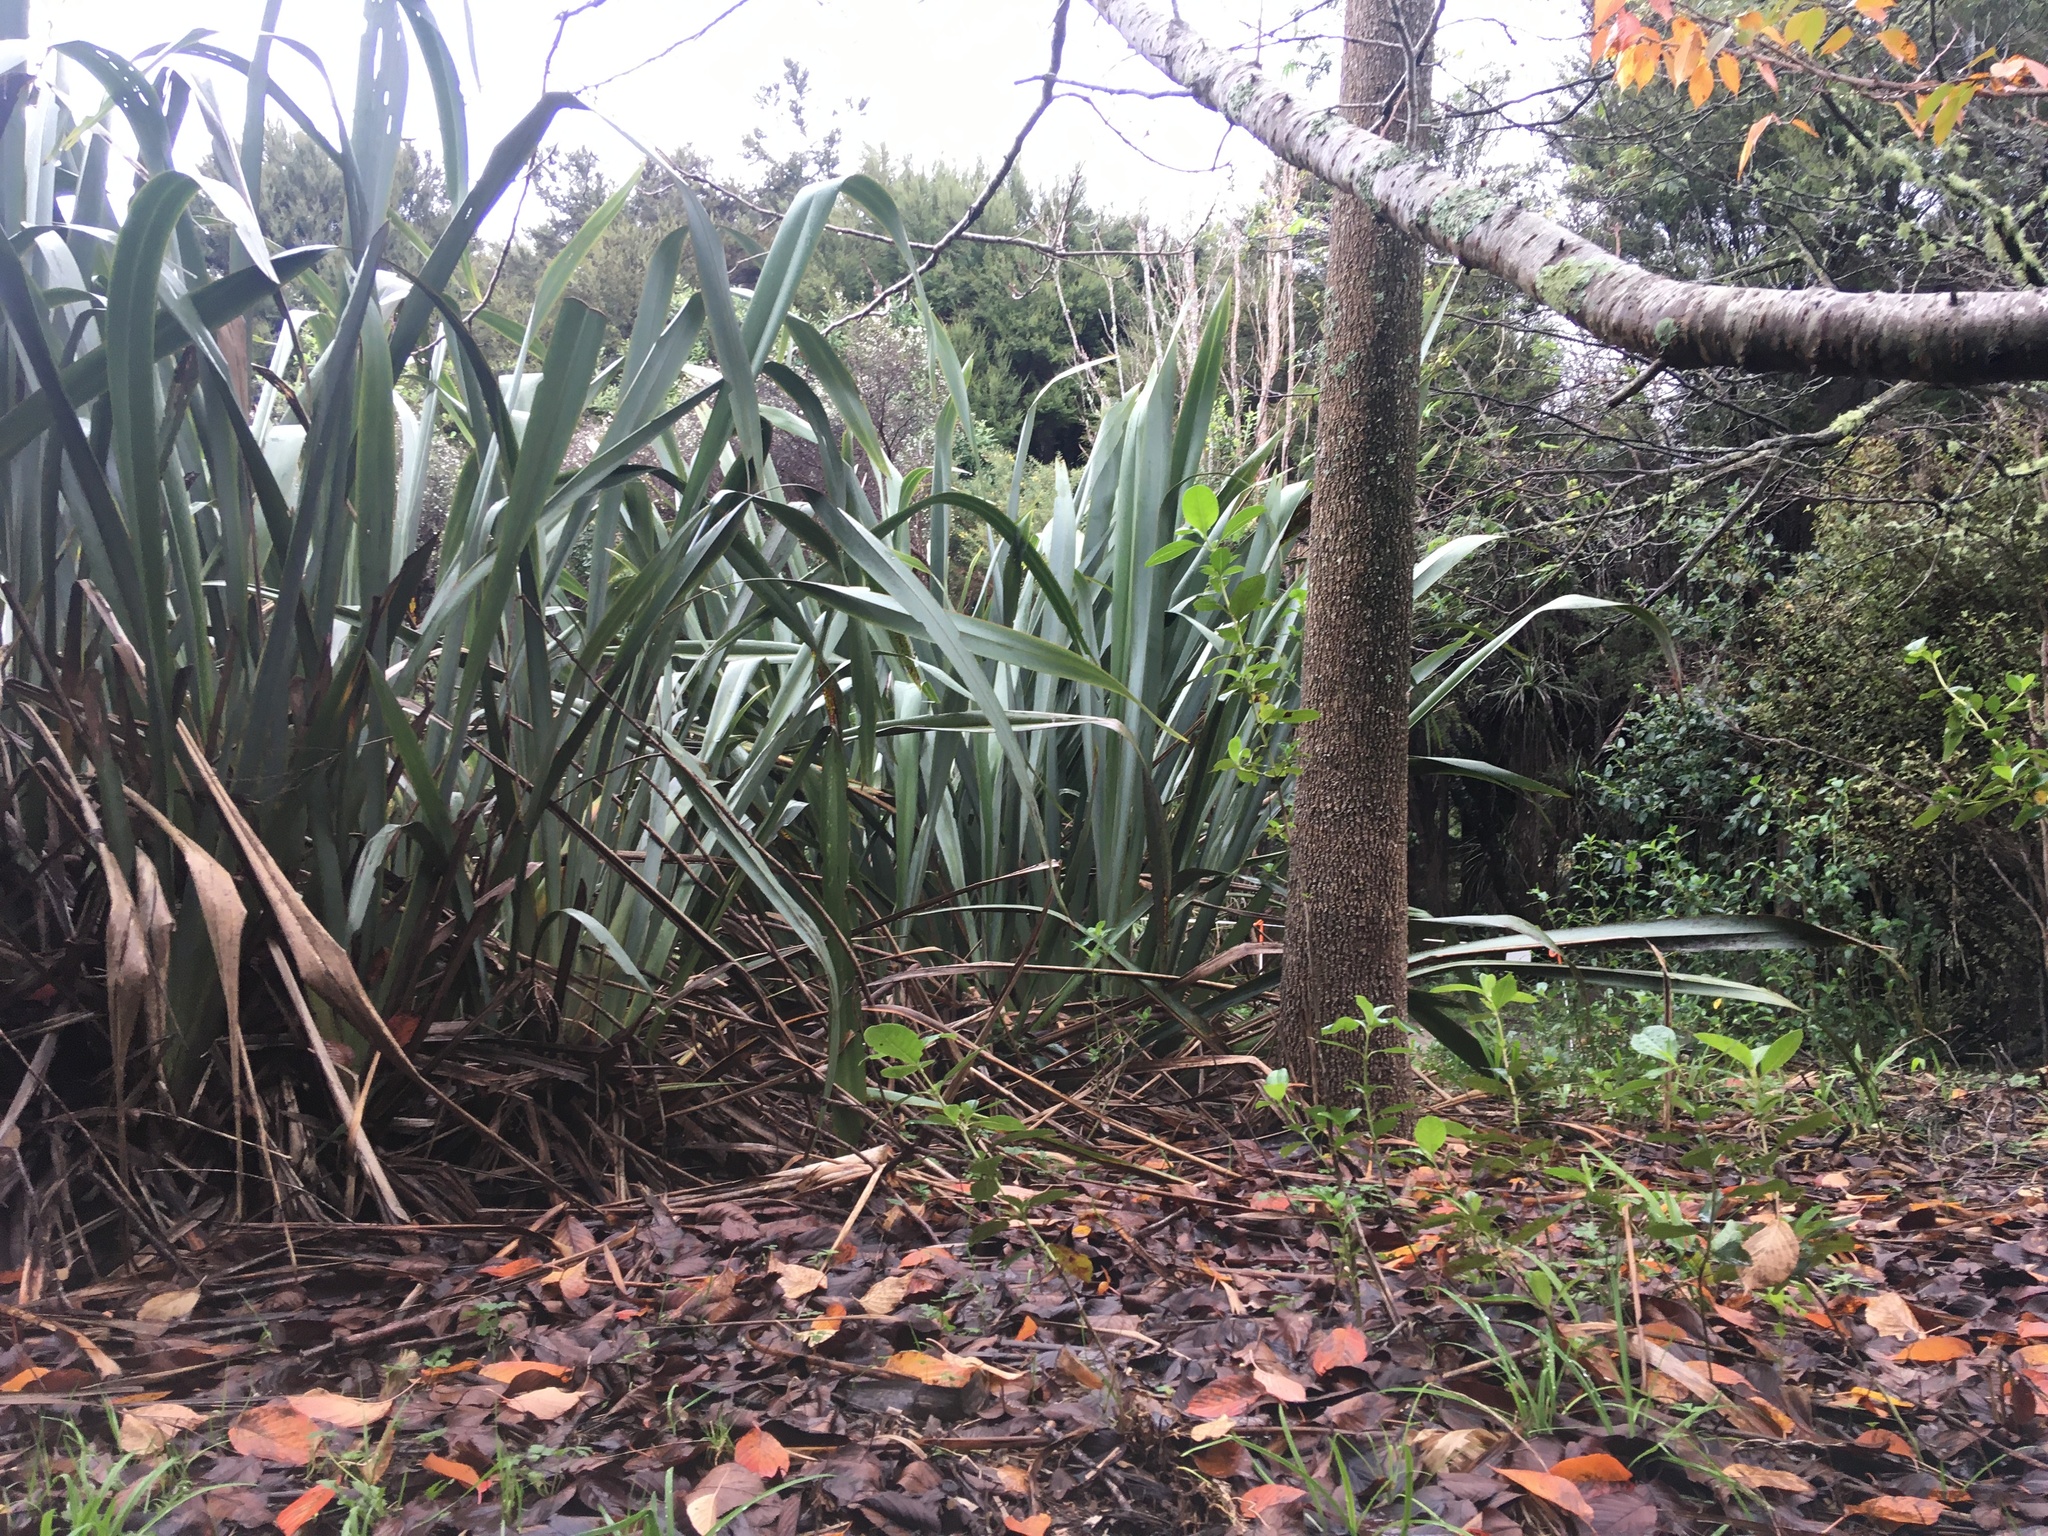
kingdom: Plantae
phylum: Tracheophyta
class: Liliopsida
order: Asparagales
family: Asphodelaceae
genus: Phormium
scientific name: Phormium tenax
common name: New zealand flax
